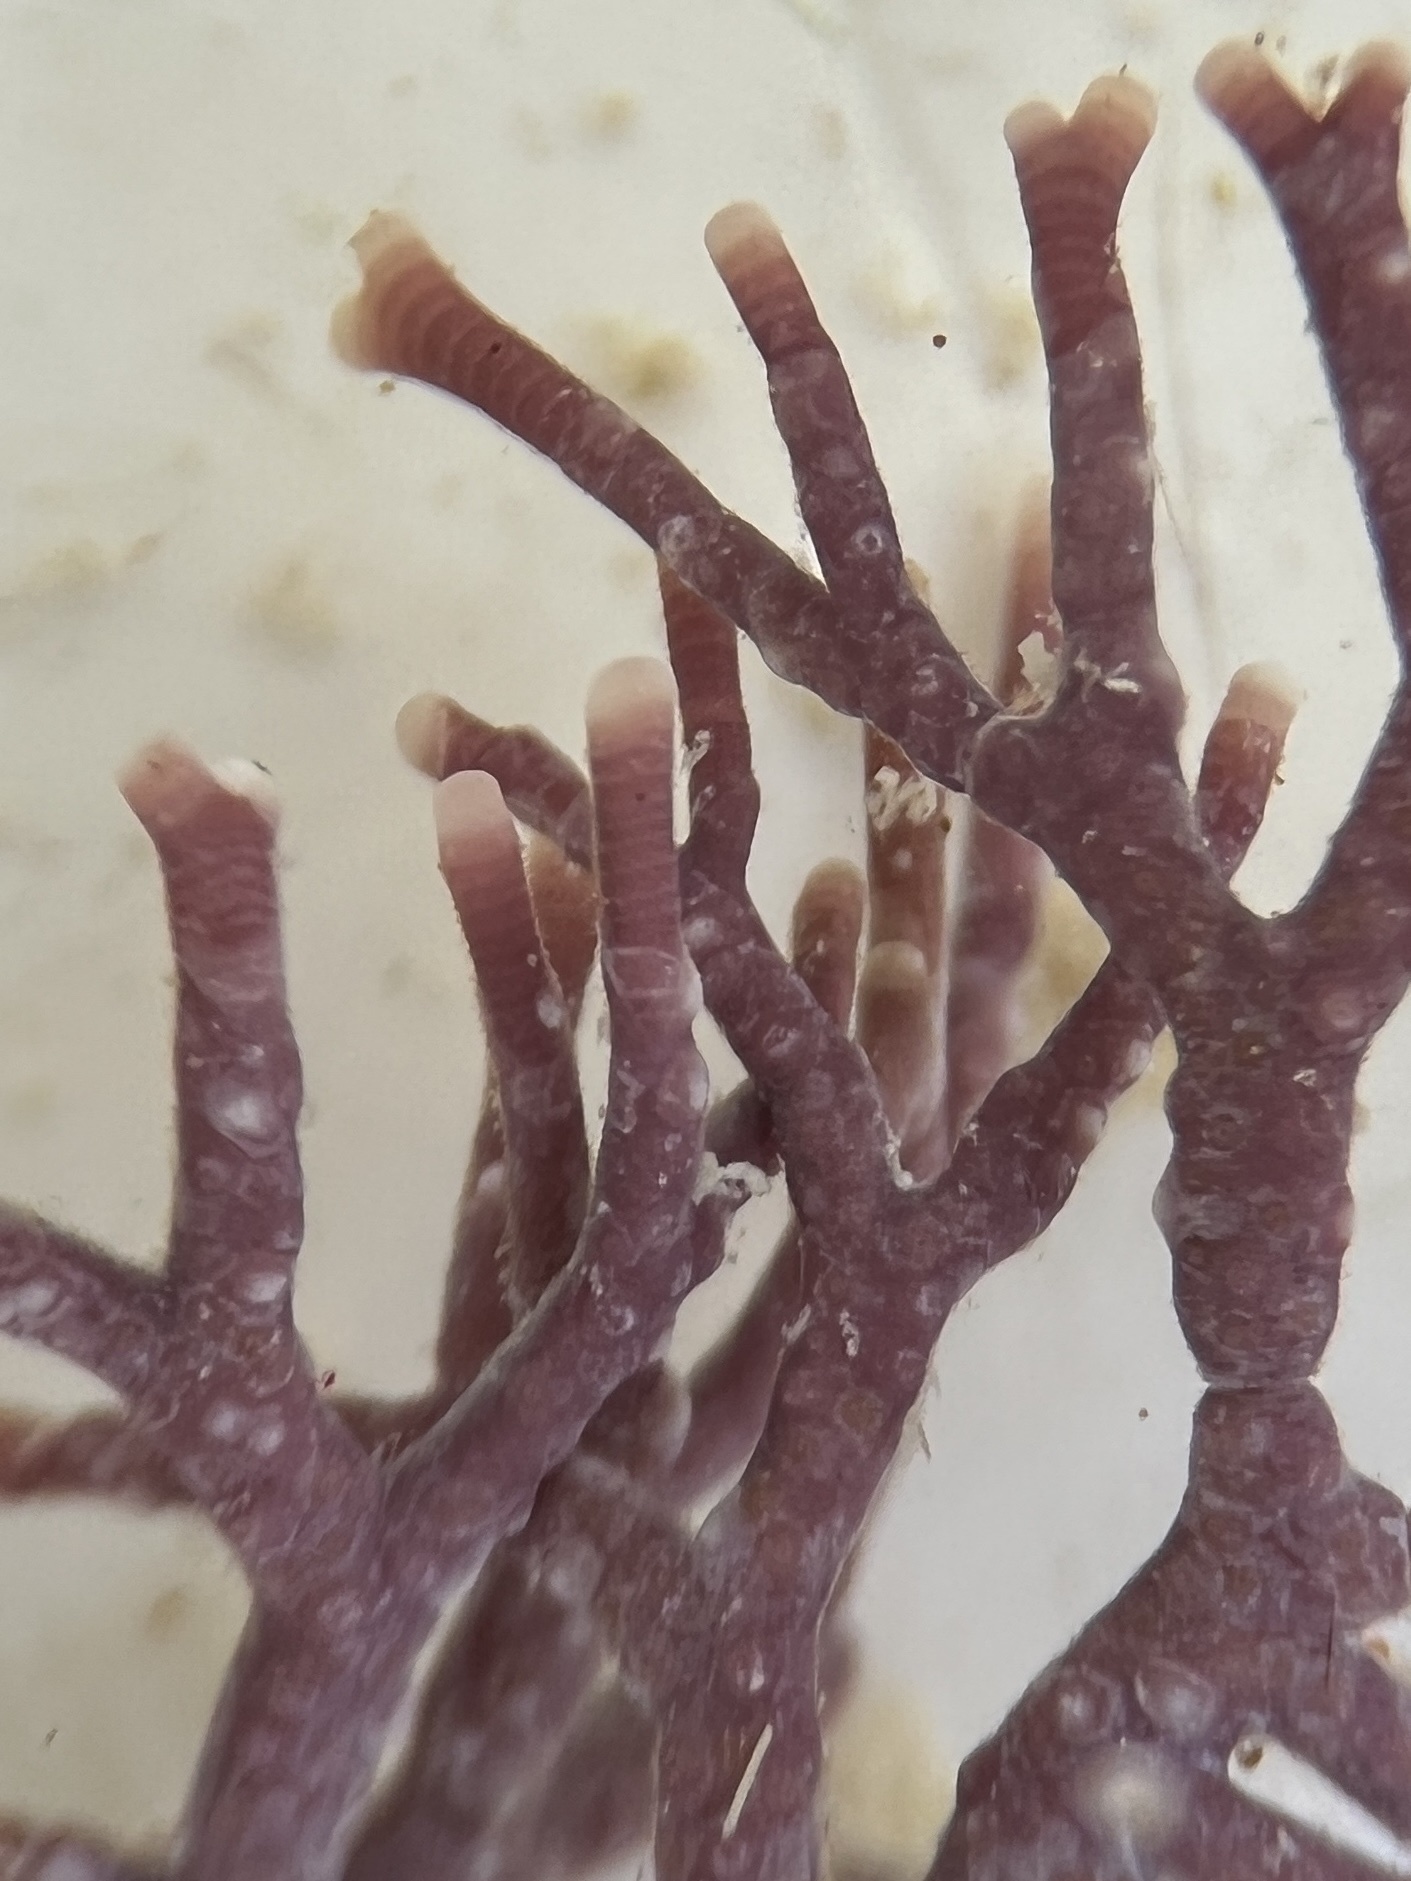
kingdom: Plantae
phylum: Rhodophyta
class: Florideophyceae
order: Corallinales
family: Spongitaceae
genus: Neogoniolithon
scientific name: Neogoniolithon spectabile
